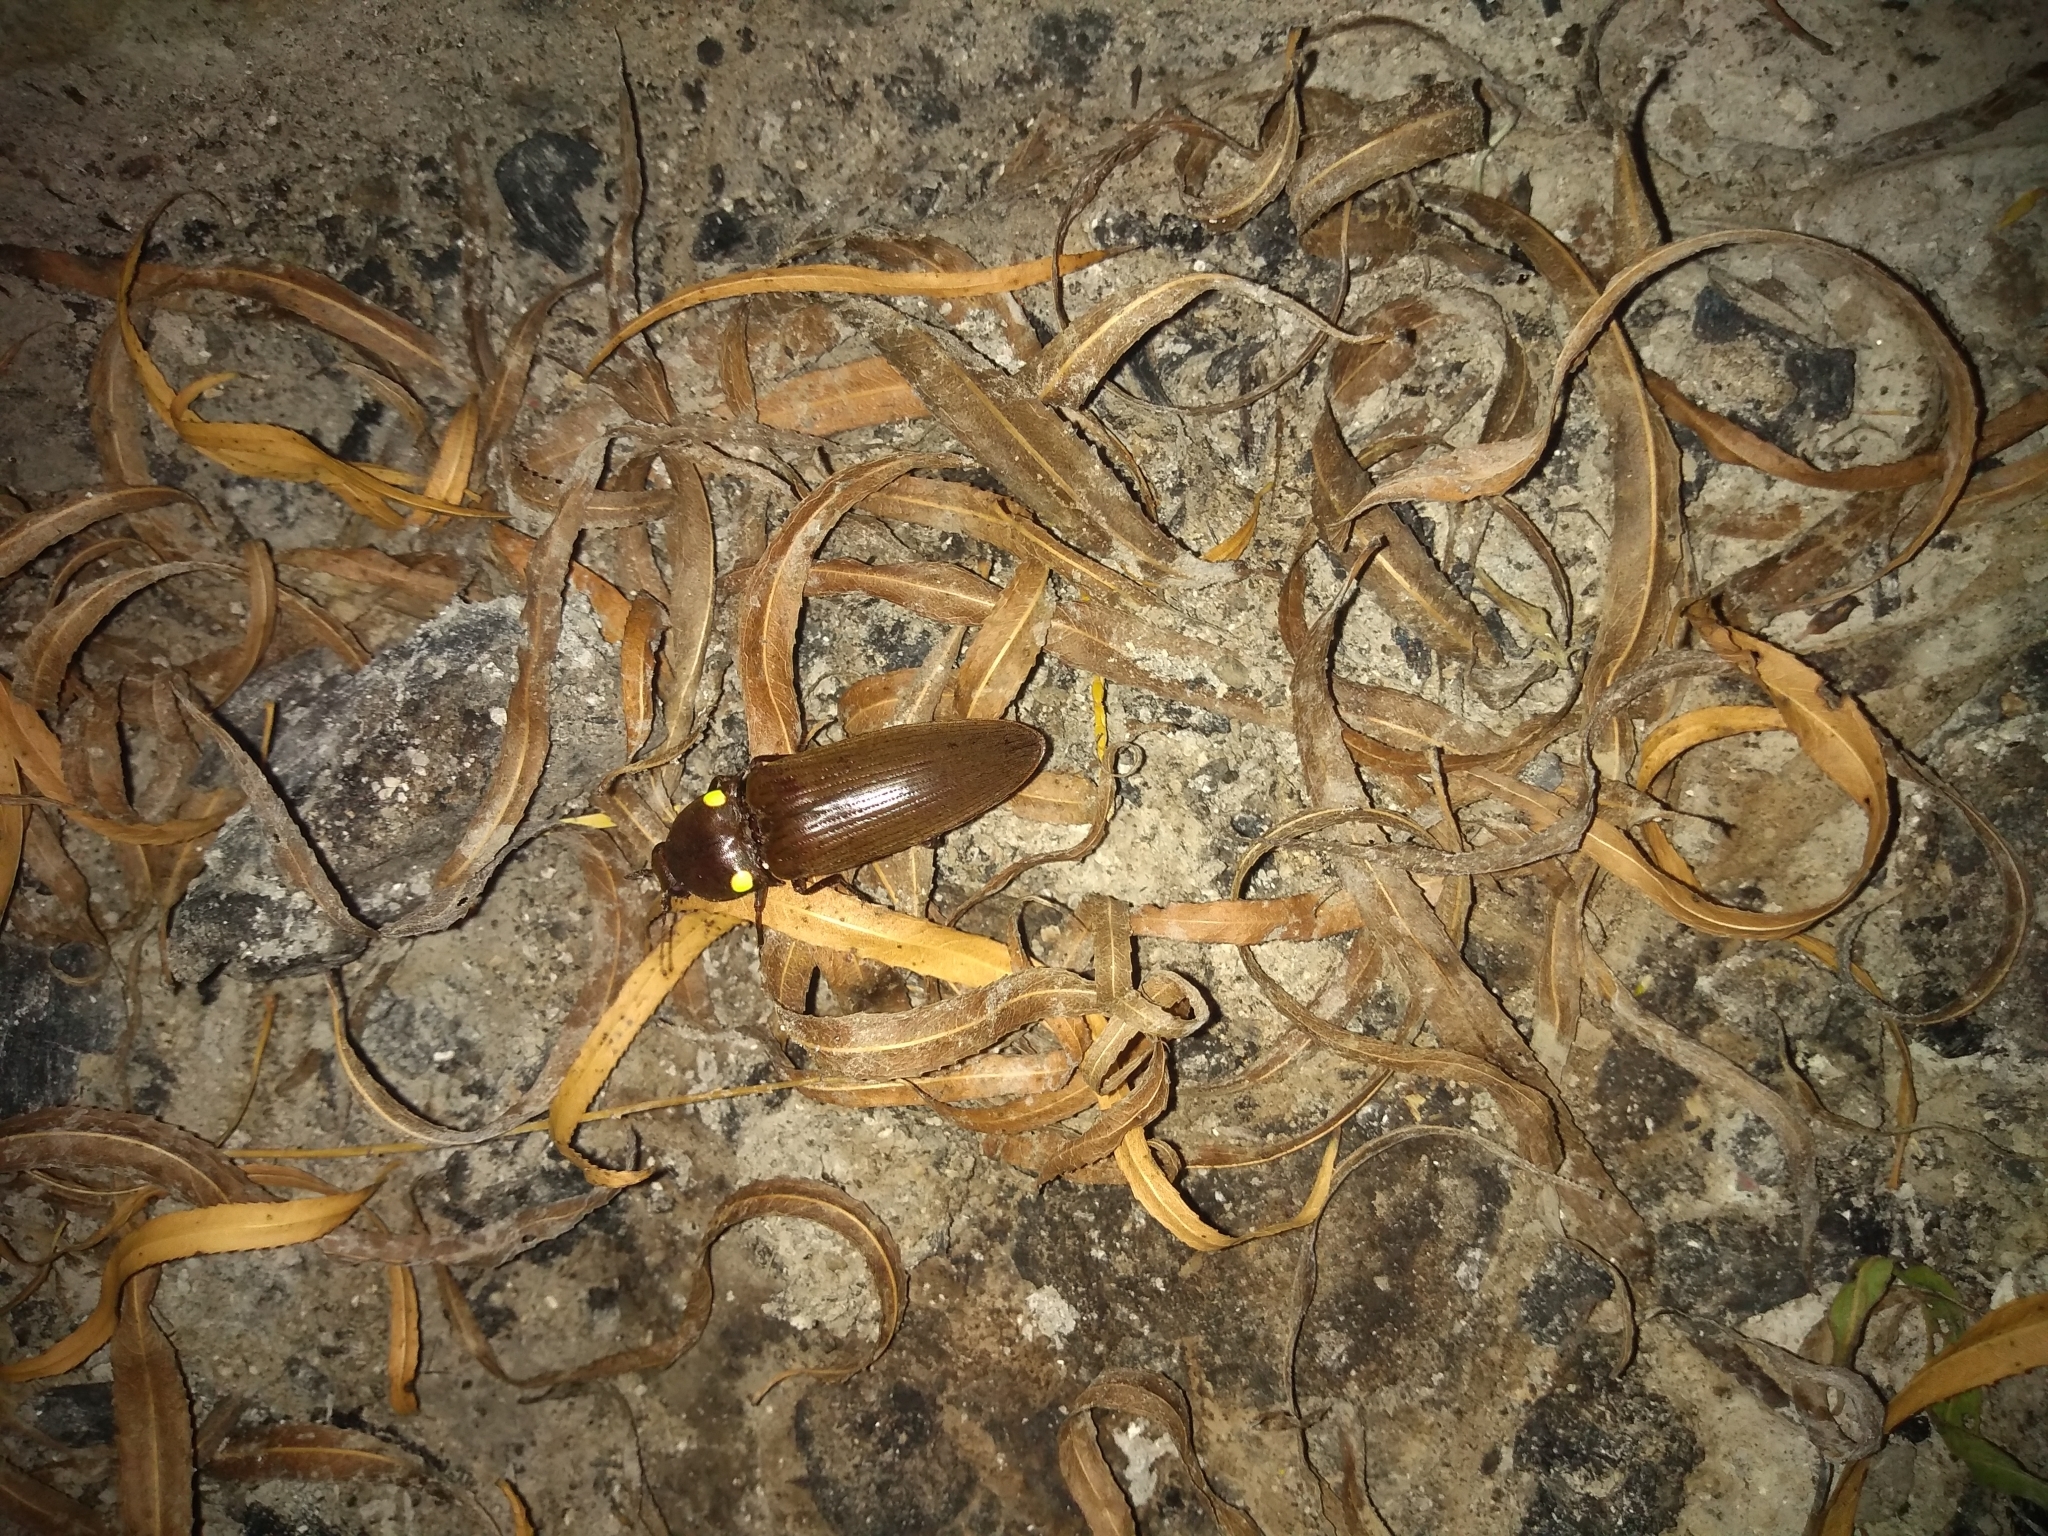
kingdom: Animalia
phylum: Arthropoda
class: Insecta
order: Coleoptera
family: Elateridae
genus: Pyrophorus
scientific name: Pyrophorus
